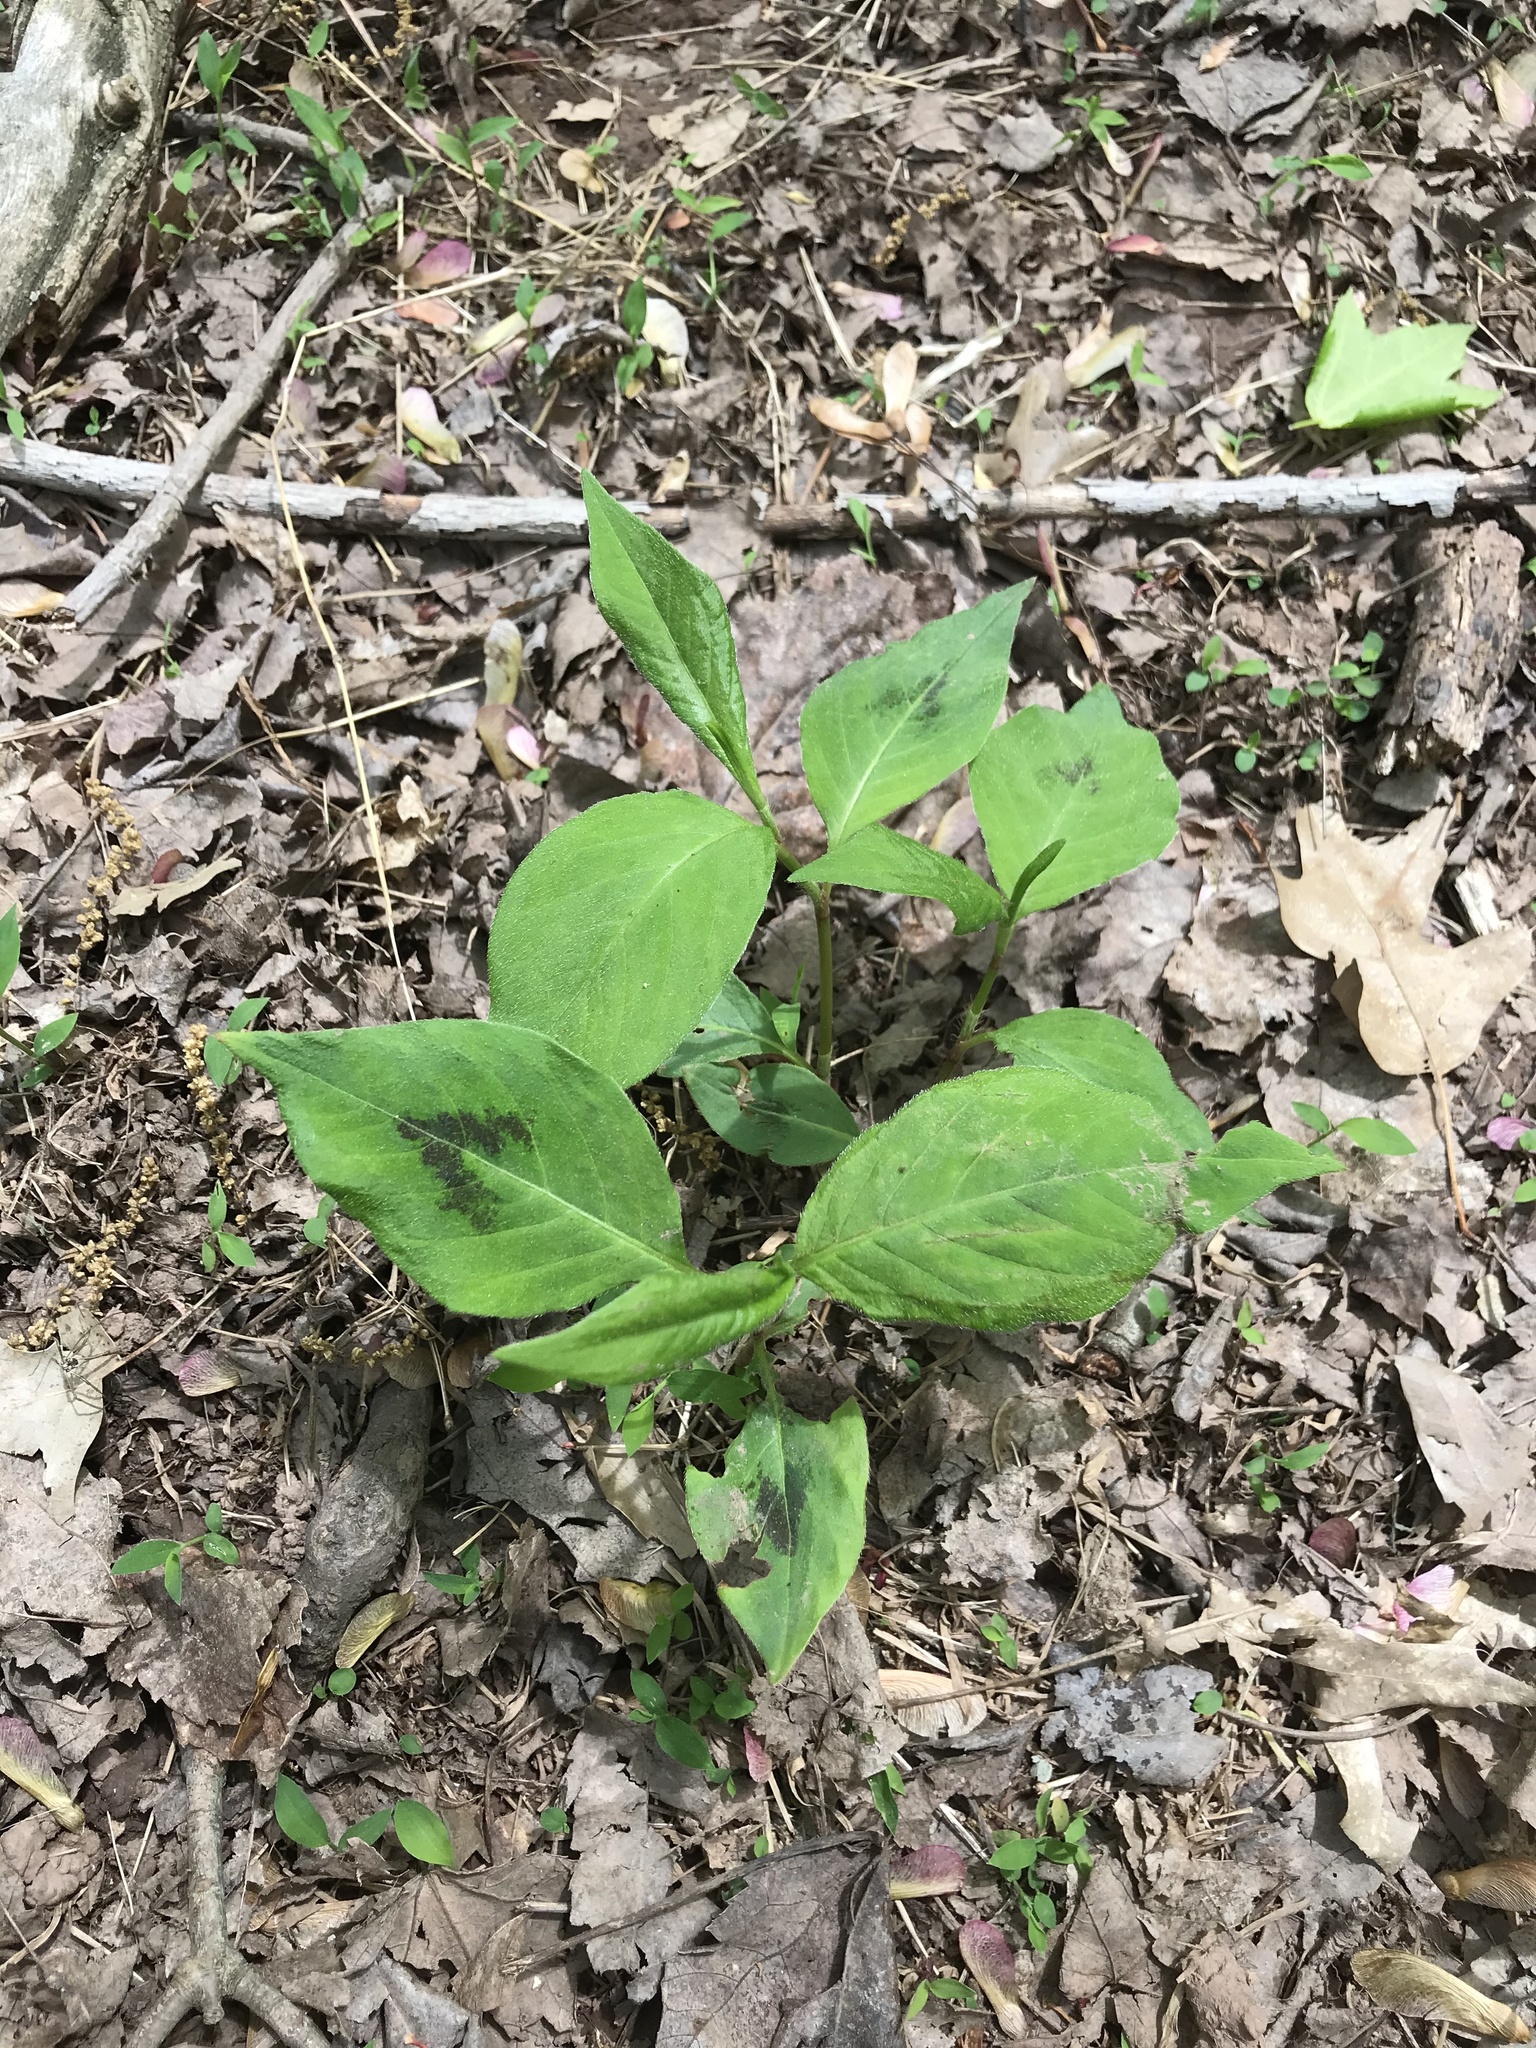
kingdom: Plantae
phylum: Tracheophyta
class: Magnoliopsida
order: Caryophyllales
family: Polygonaceae
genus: Persicaria
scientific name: Persicaria virginiana
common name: Jumpseed
